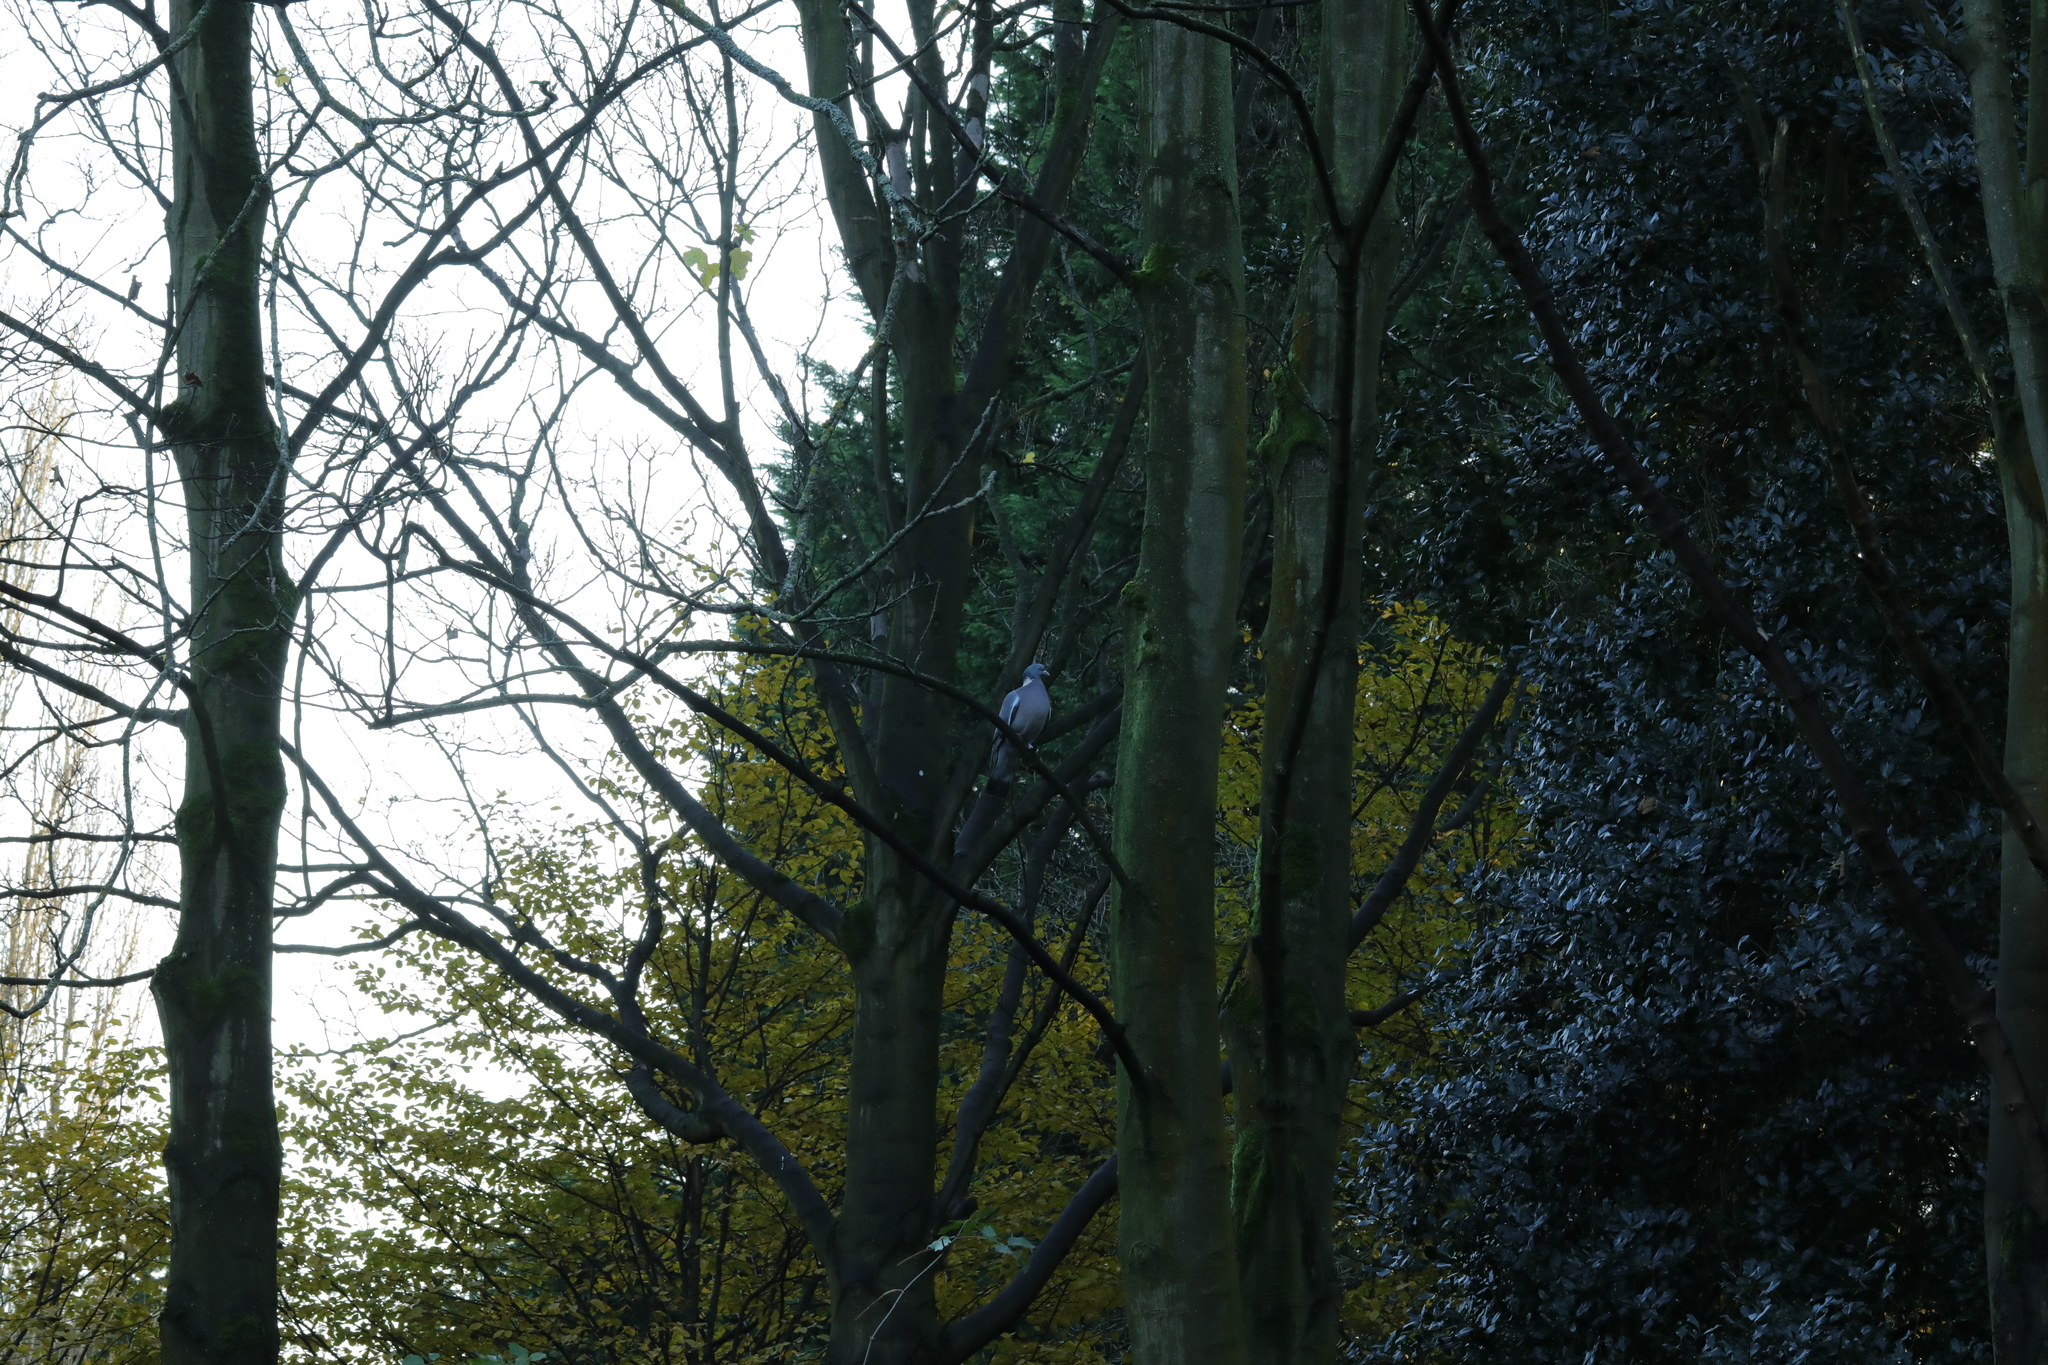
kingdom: Animalia
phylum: Chordata
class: Aves
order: Columbiformes
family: Columbidae
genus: Columba
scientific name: Columba palumbus
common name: Common wood pigeon
